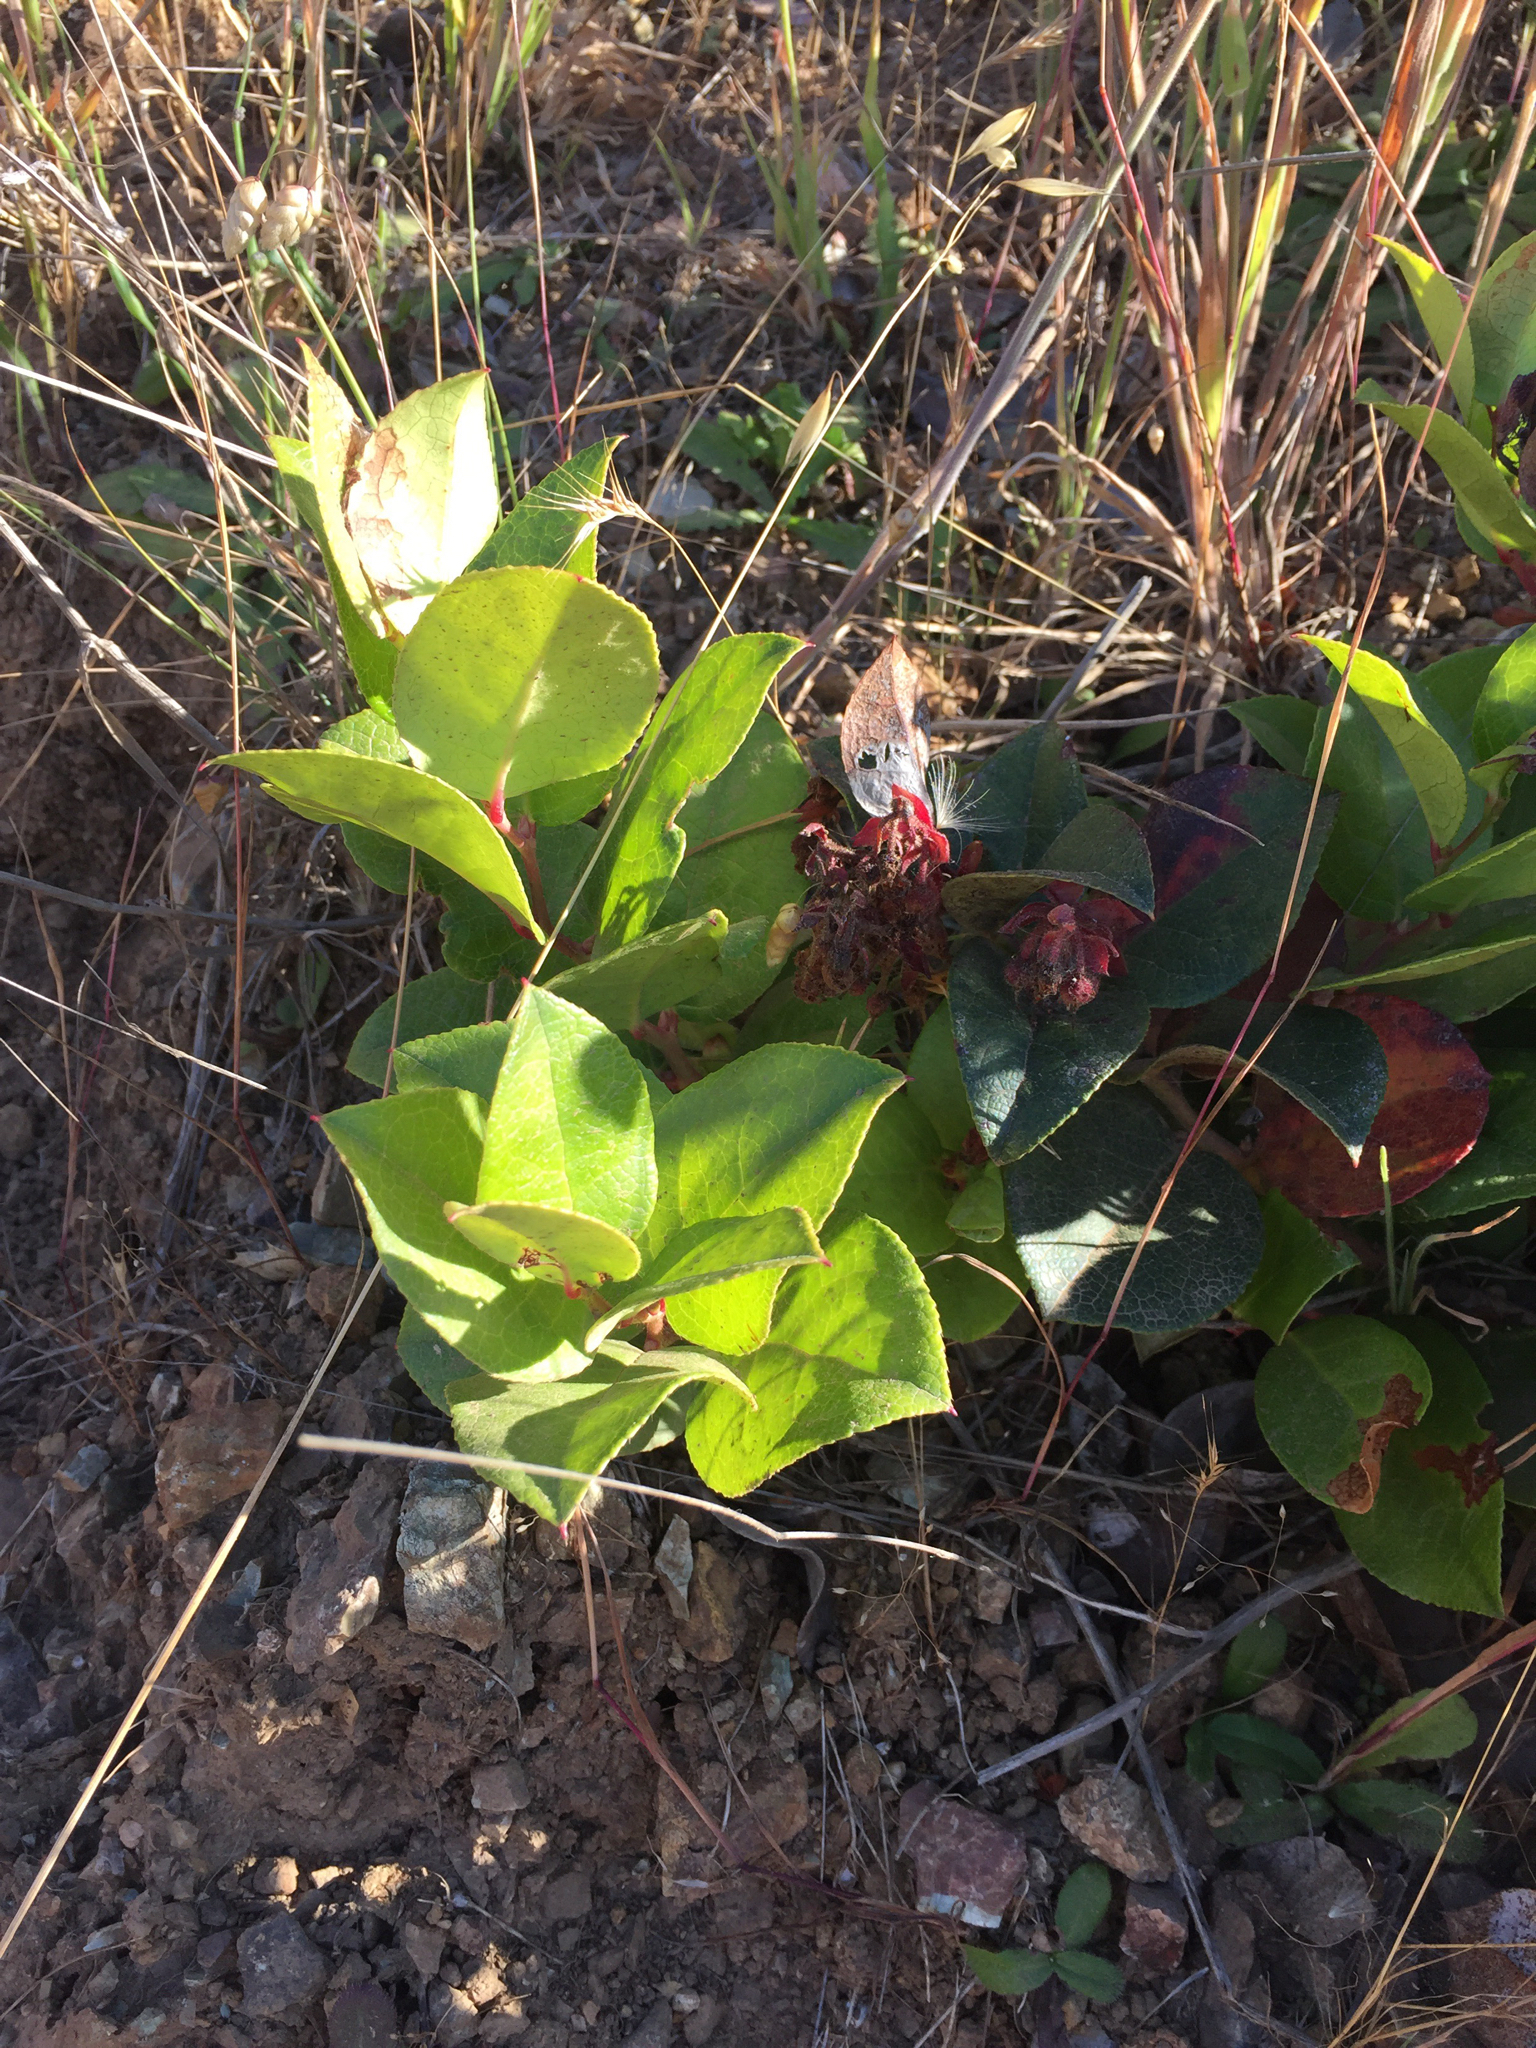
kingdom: Plantae
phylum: Tracheophyta
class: Magnoliopsida
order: Ericales
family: Ericaceae
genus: Gaultheria
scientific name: Gaultheria shallon
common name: Shallon
